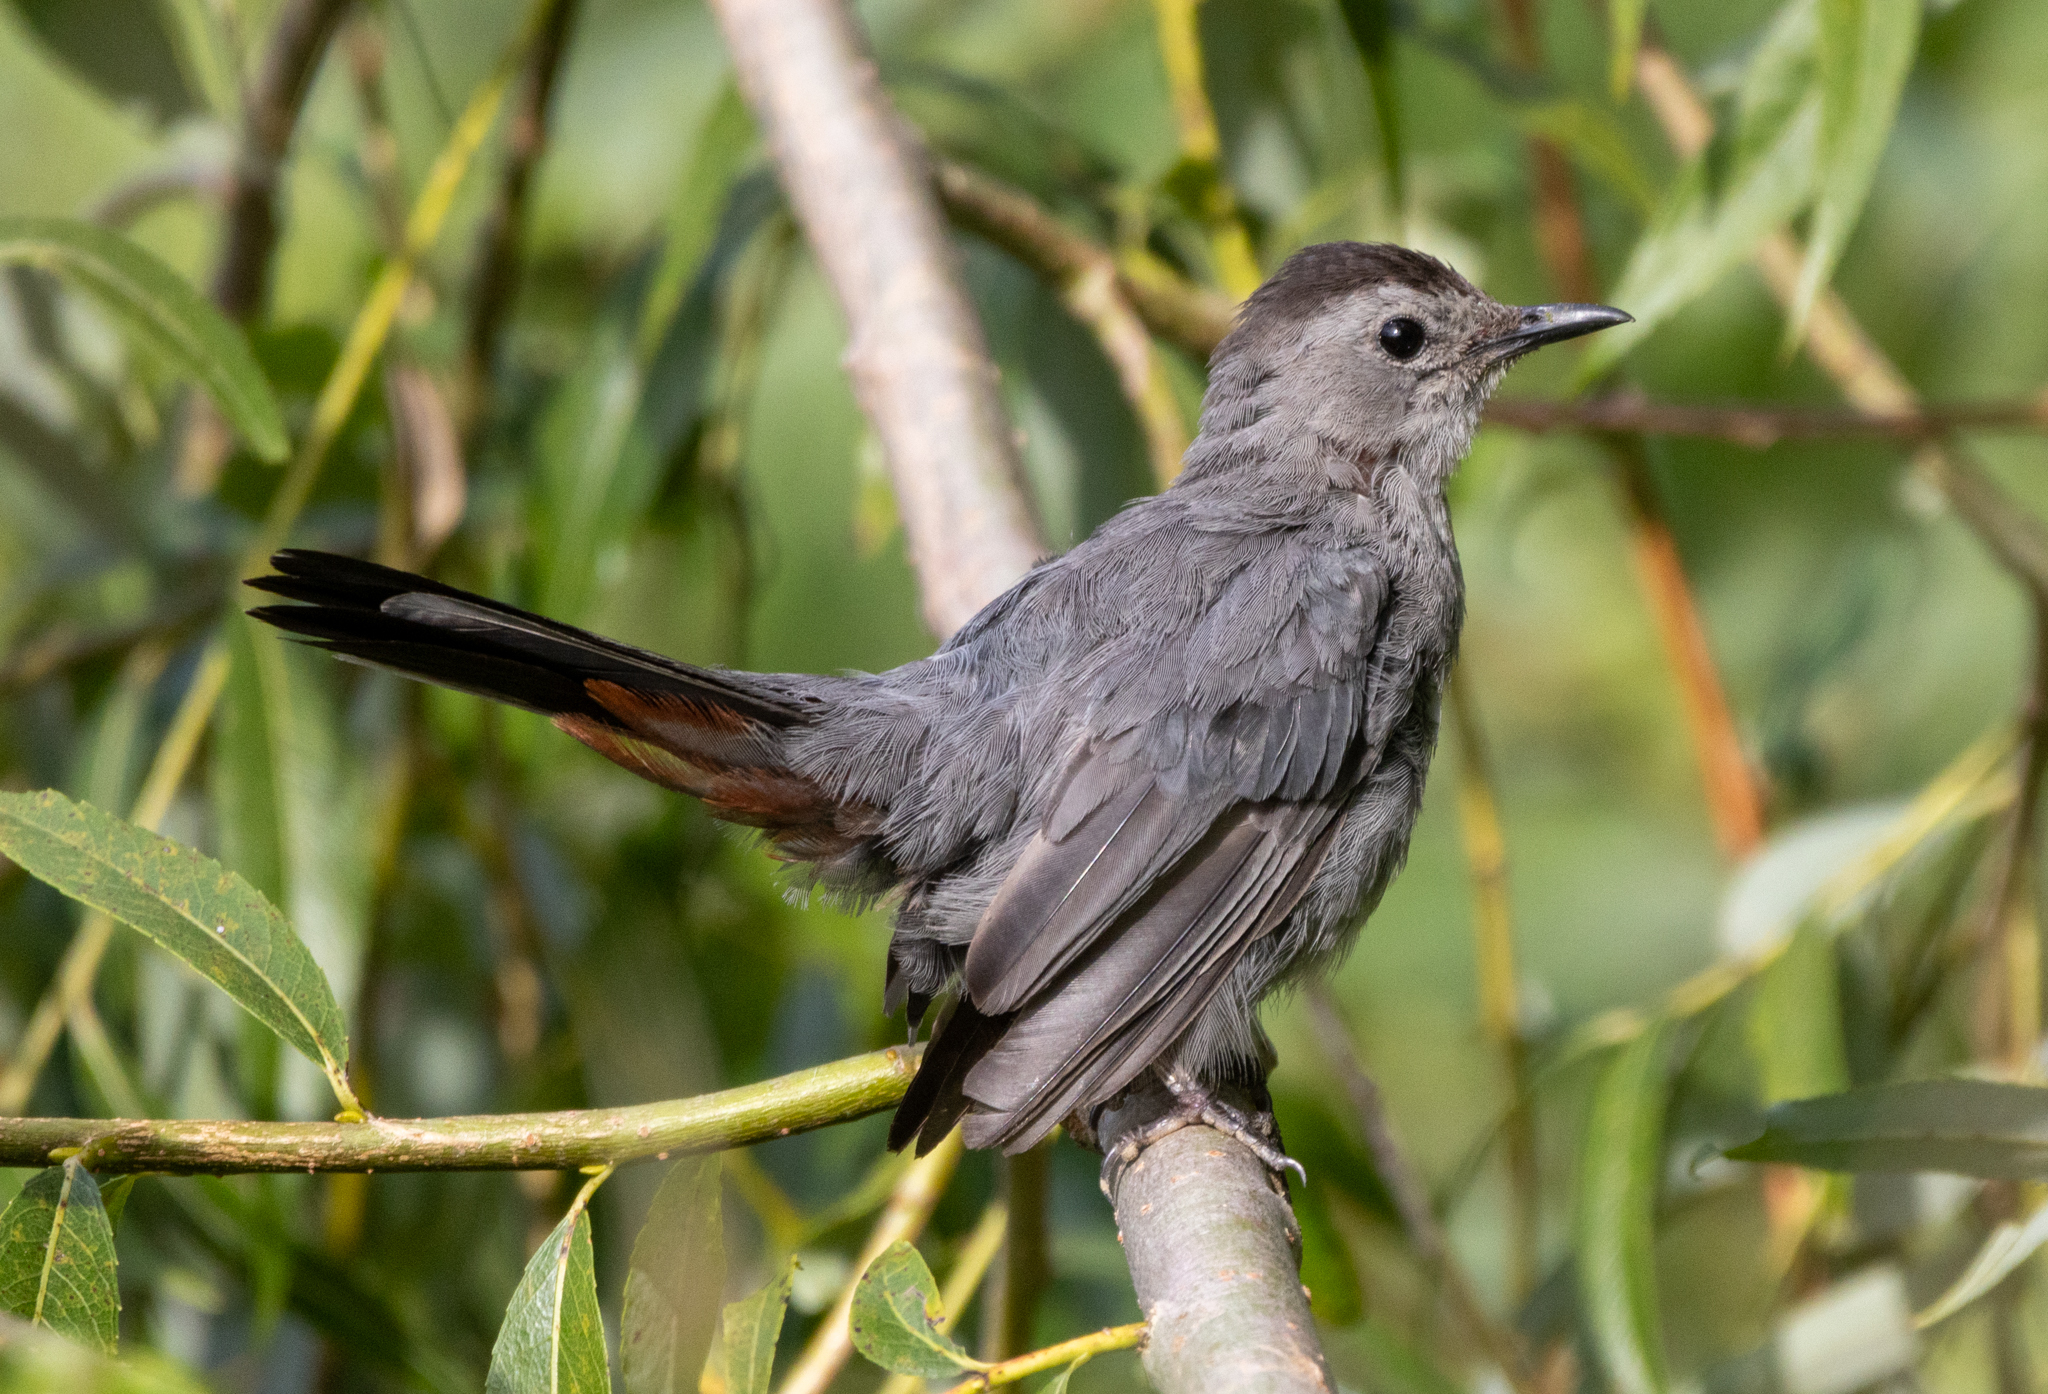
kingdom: Animalia
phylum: Chordata
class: Aves
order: Passeriformes
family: Mimidae
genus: Dumetella
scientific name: Dumetella carolinensis
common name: Gray catbird
